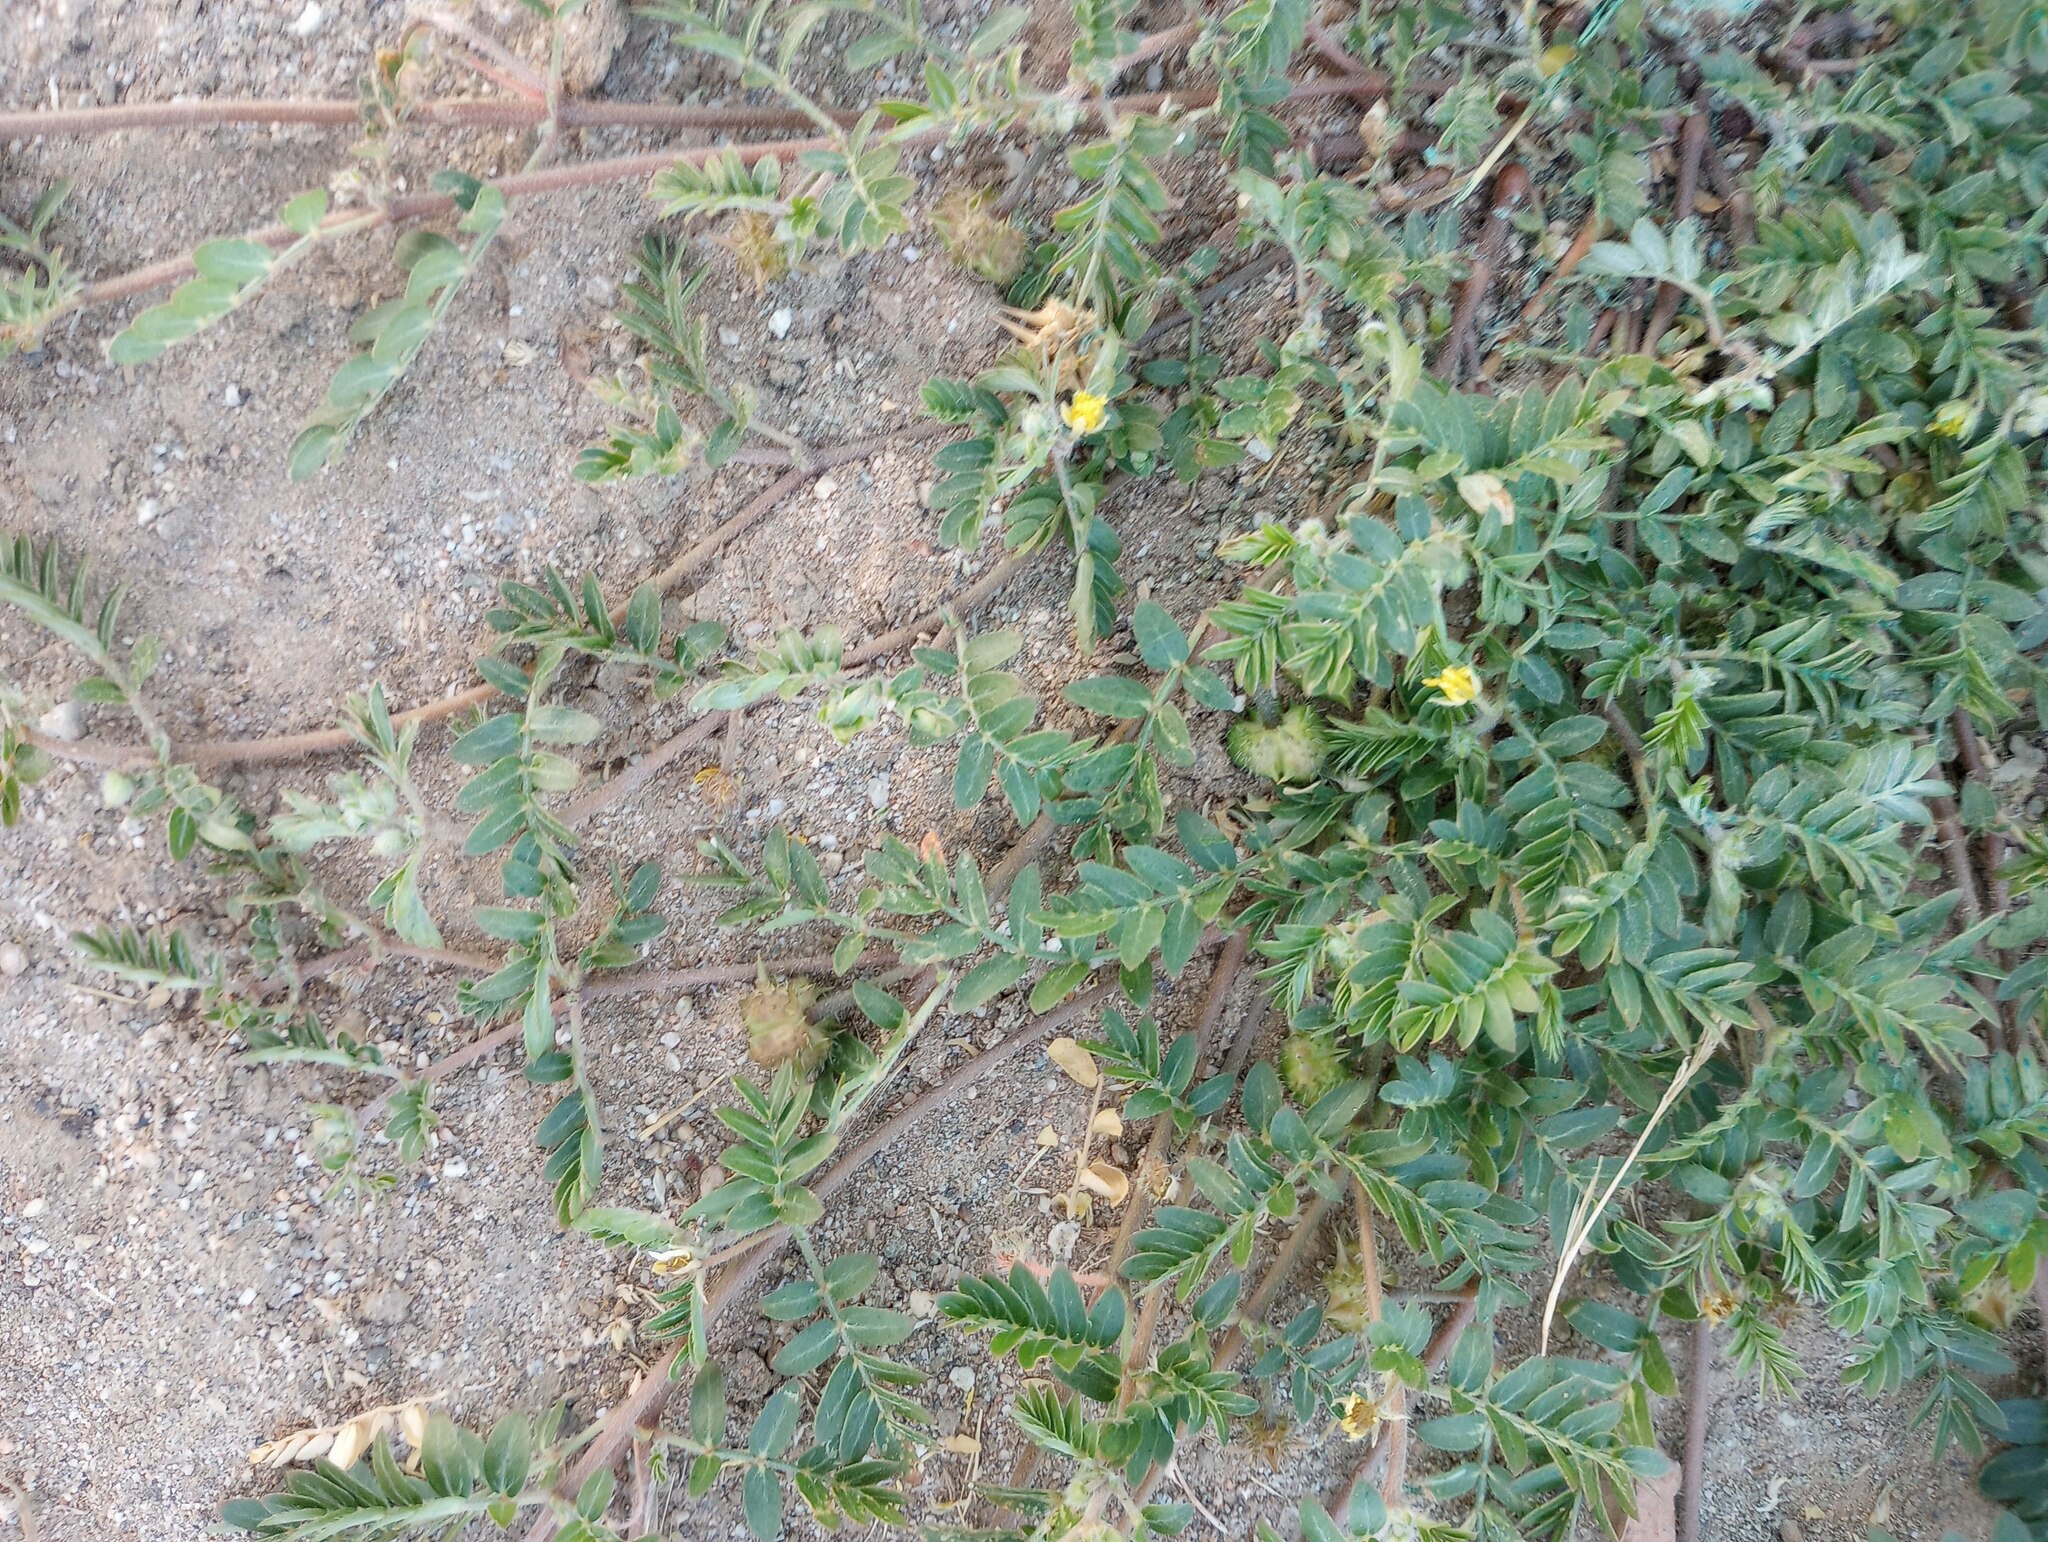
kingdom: Plantae
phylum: Tracheophyta
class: Magnoliopsida
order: Zygophyllales
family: Zygophyllaceae
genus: Tribulus
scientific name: Tribulus terrestris
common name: Puncturevine
